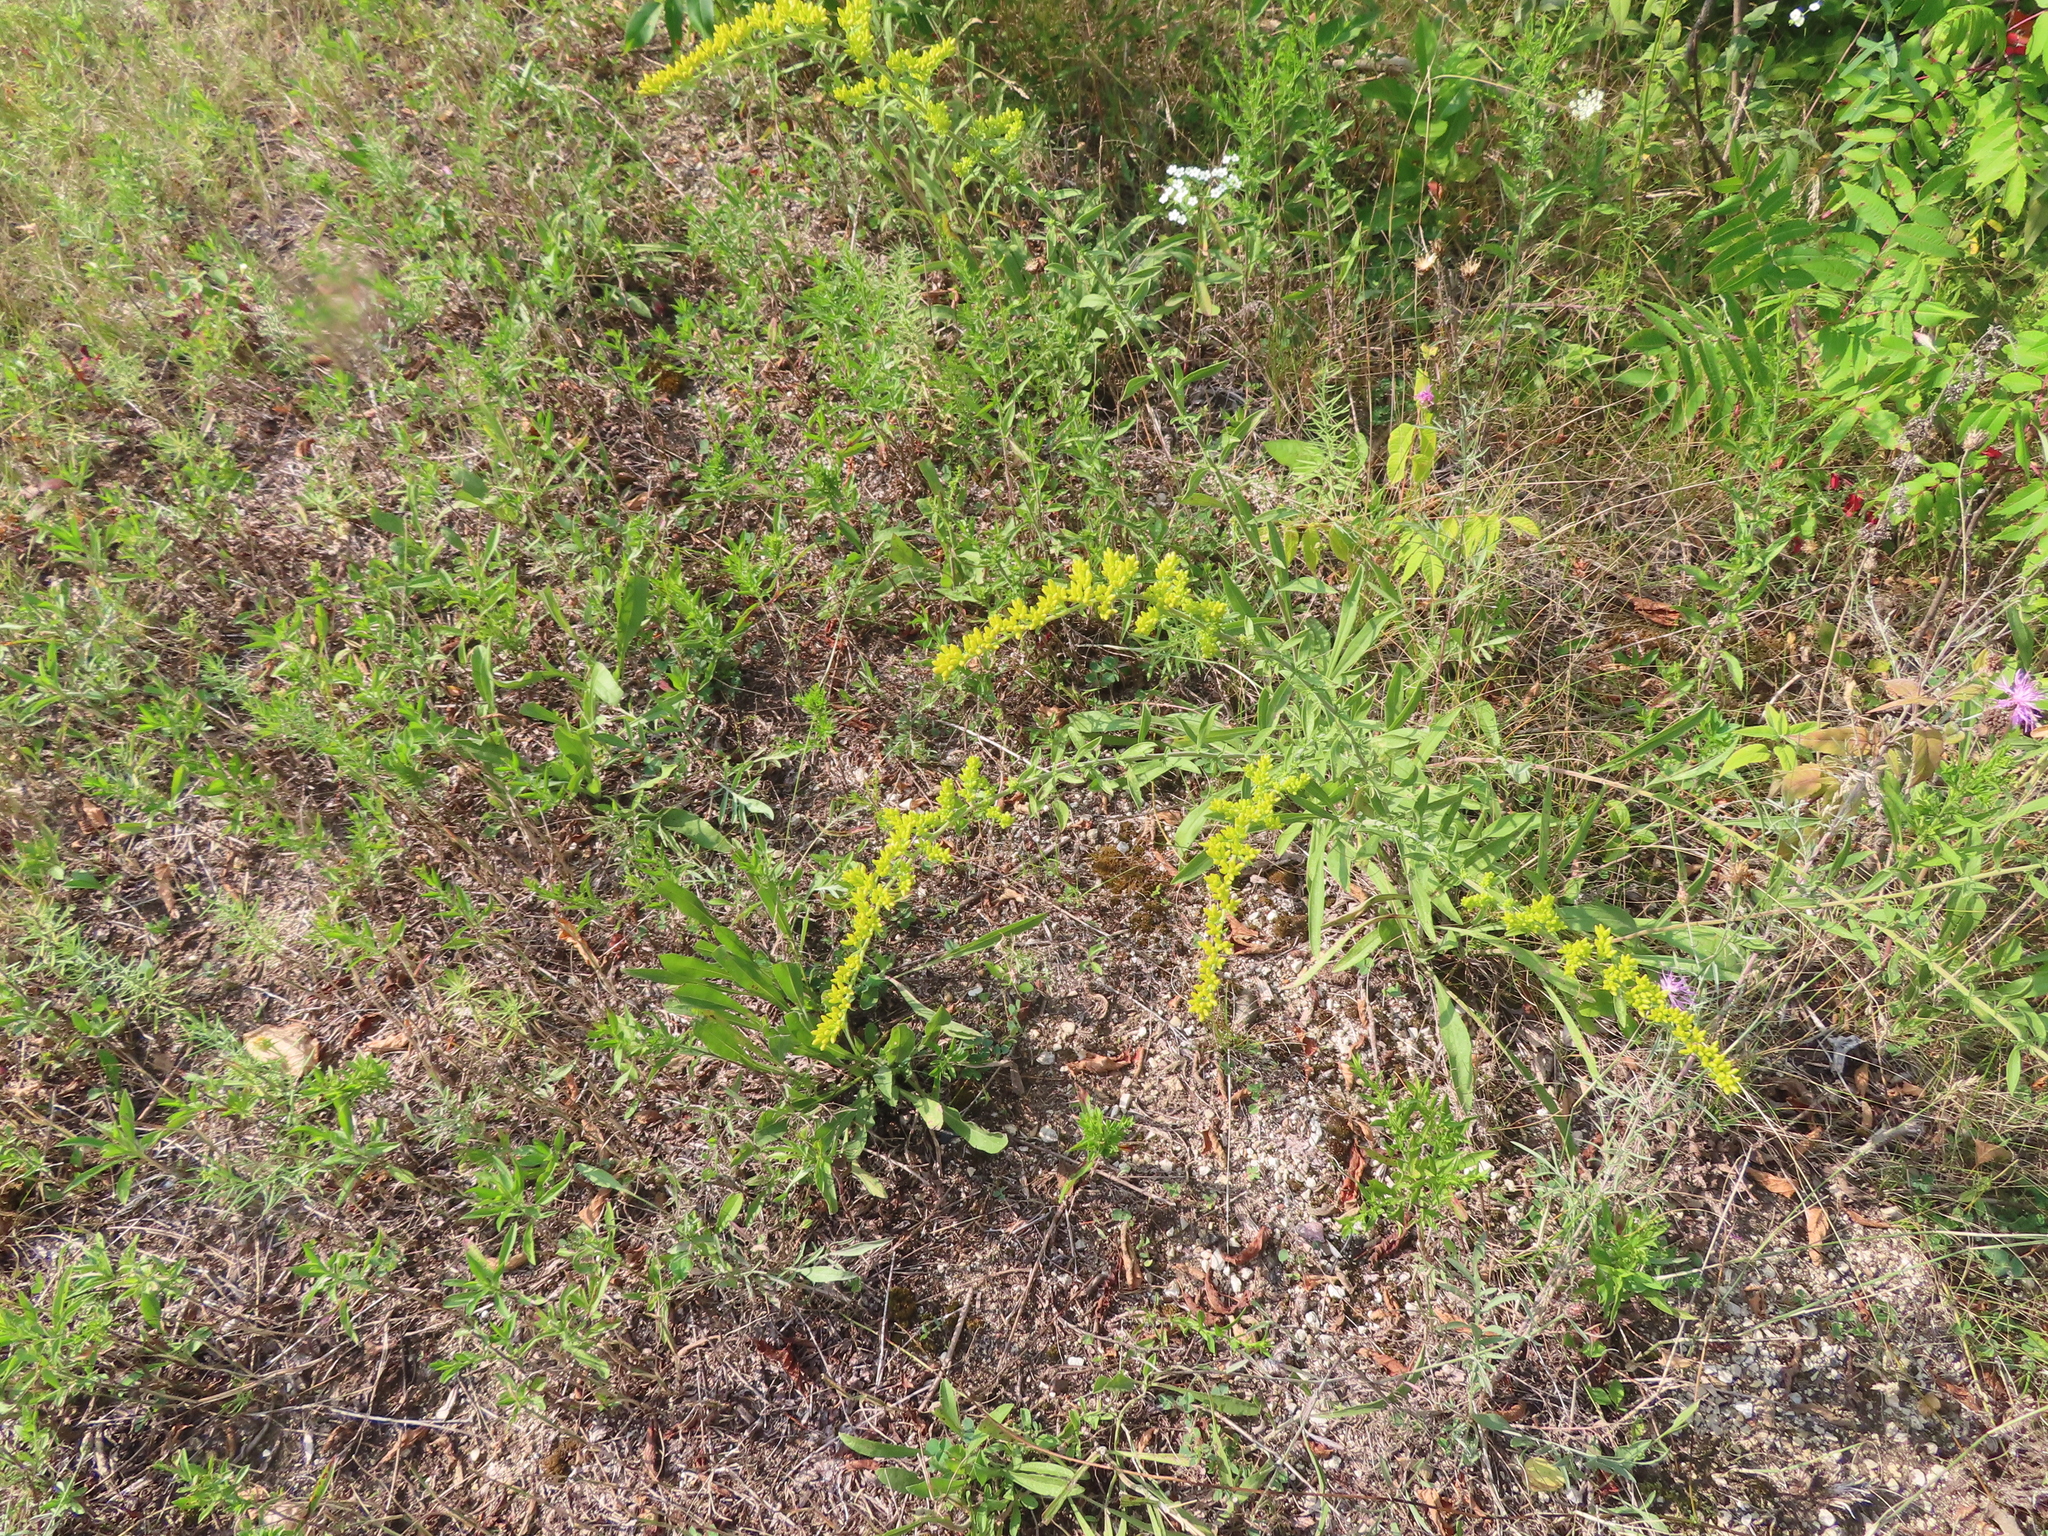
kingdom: Plantae
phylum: Tracheophyta
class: Magnoliopsida
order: Asterales
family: Asteraceae
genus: Solidago
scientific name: Solidago nemoralis
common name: Grey goldenrod
